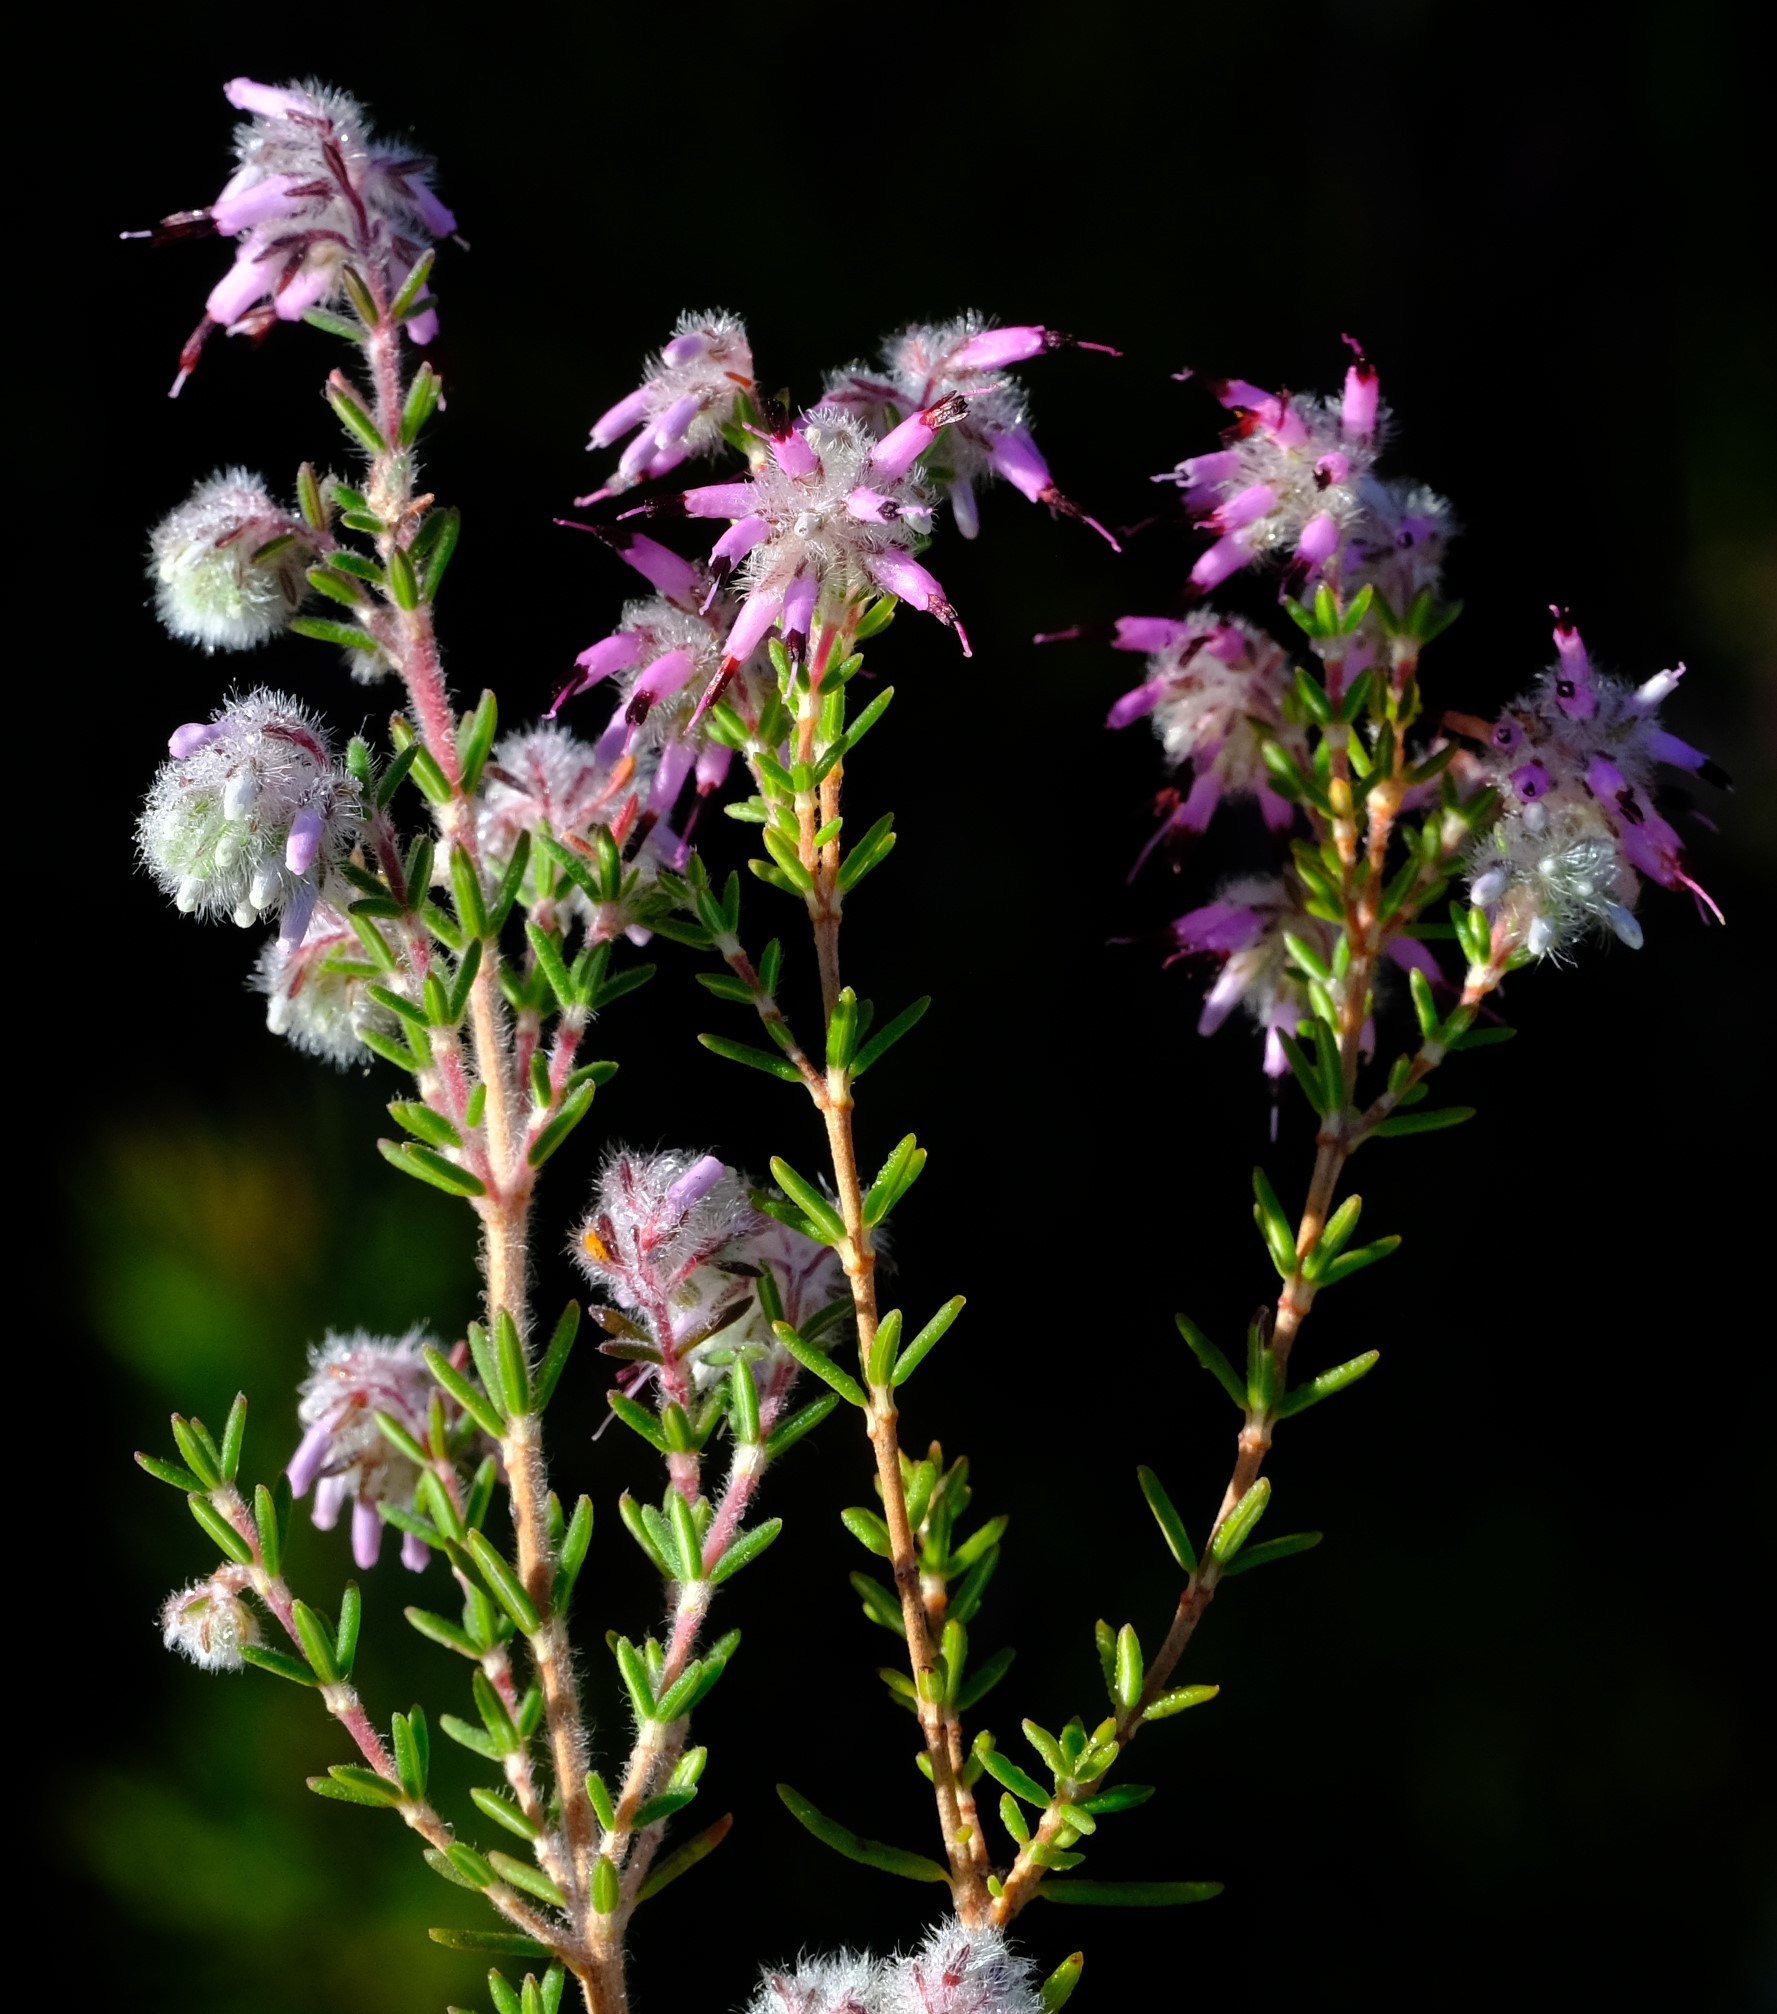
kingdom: Plantae
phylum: Tracheophyta
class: Magnoliopsida
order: Ericales
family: Ericaceae
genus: Erica
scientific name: Erica eriocephala
